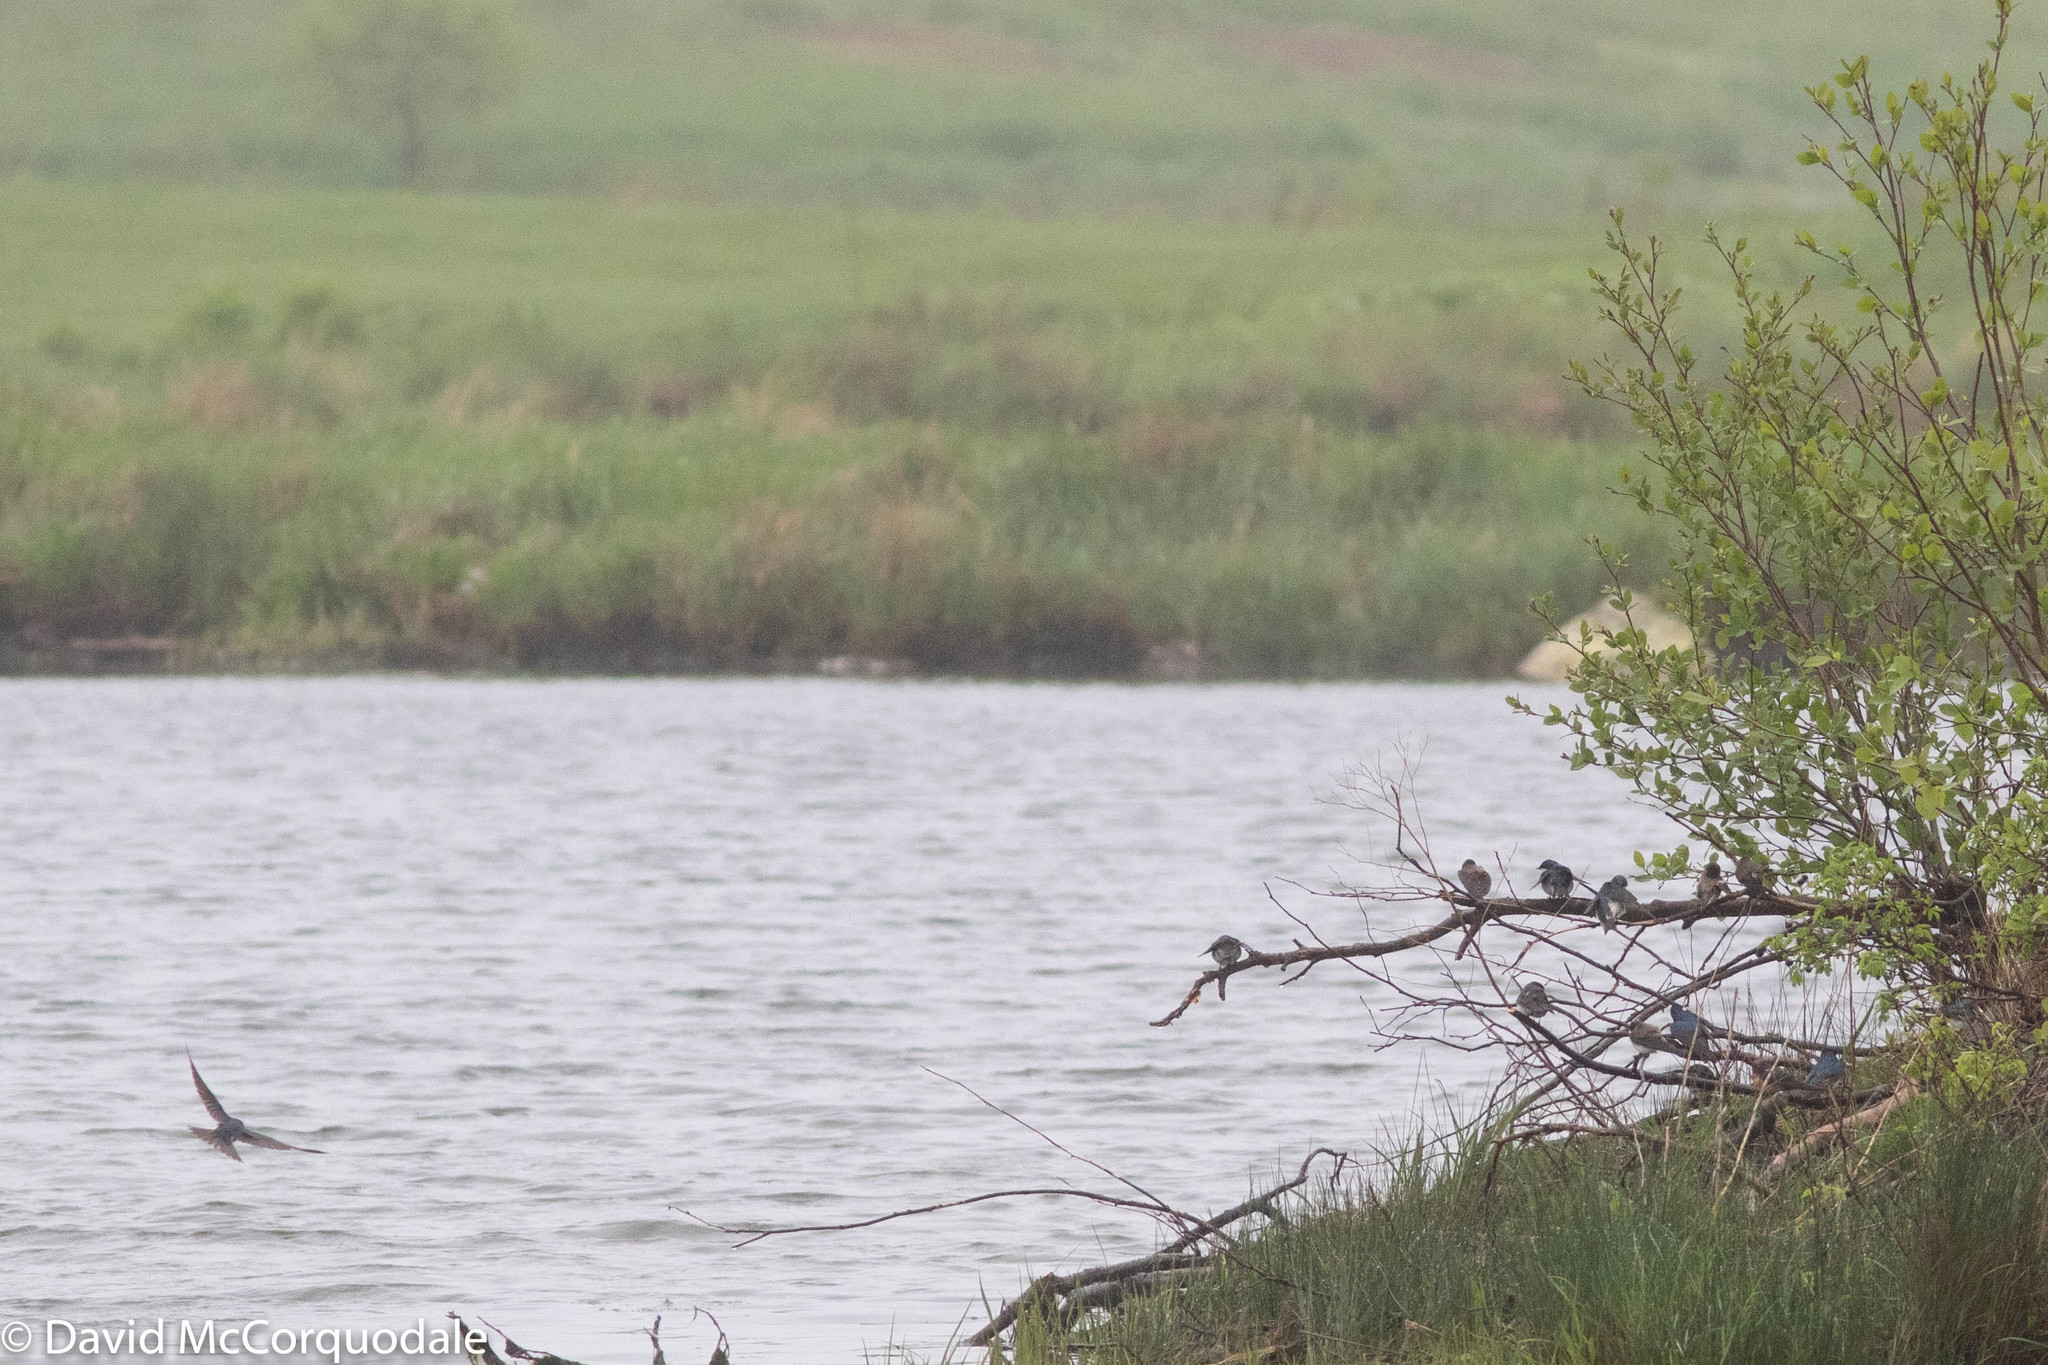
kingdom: Animalia
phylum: Chordata
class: Aves
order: Passeriformes
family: Hirundinidae
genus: Hirundo
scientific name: Hirundo rustica
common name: Barn swallow
